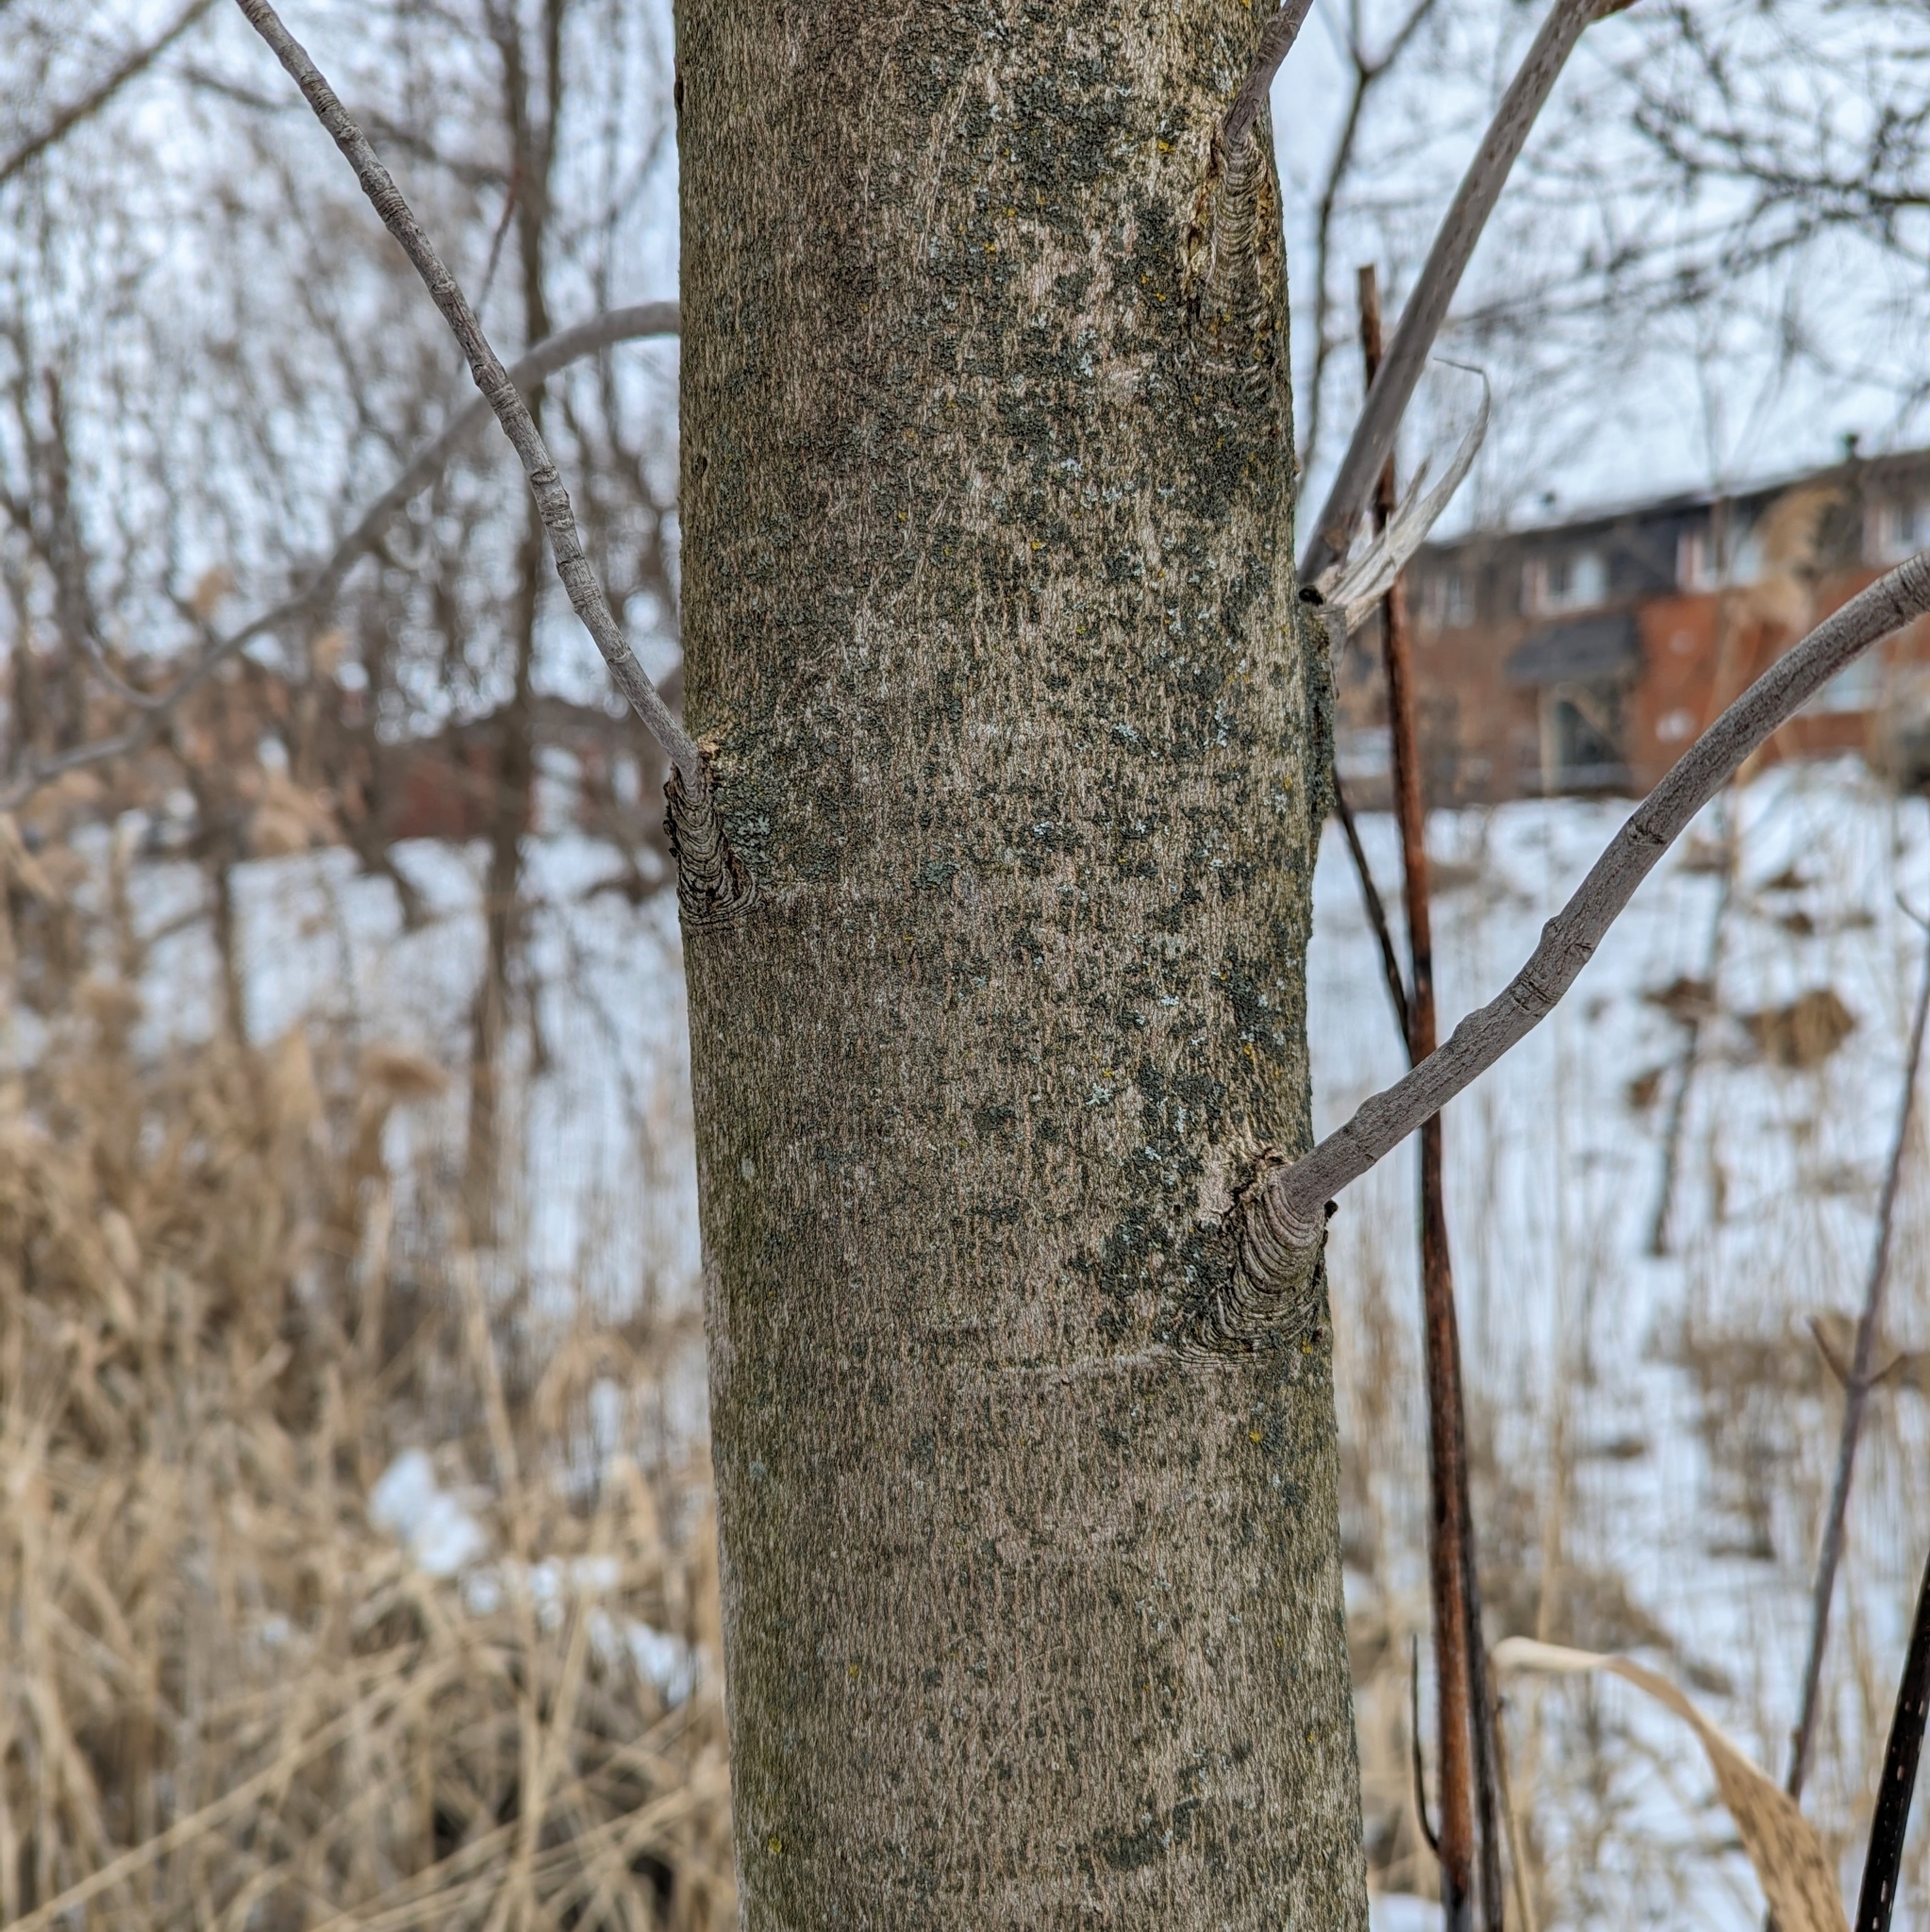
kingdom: Plantae
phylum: Tracheophyta
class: Magnoliopsida
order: Gentianales
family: Rubiaceae
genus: Rubia
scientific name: Rubia
